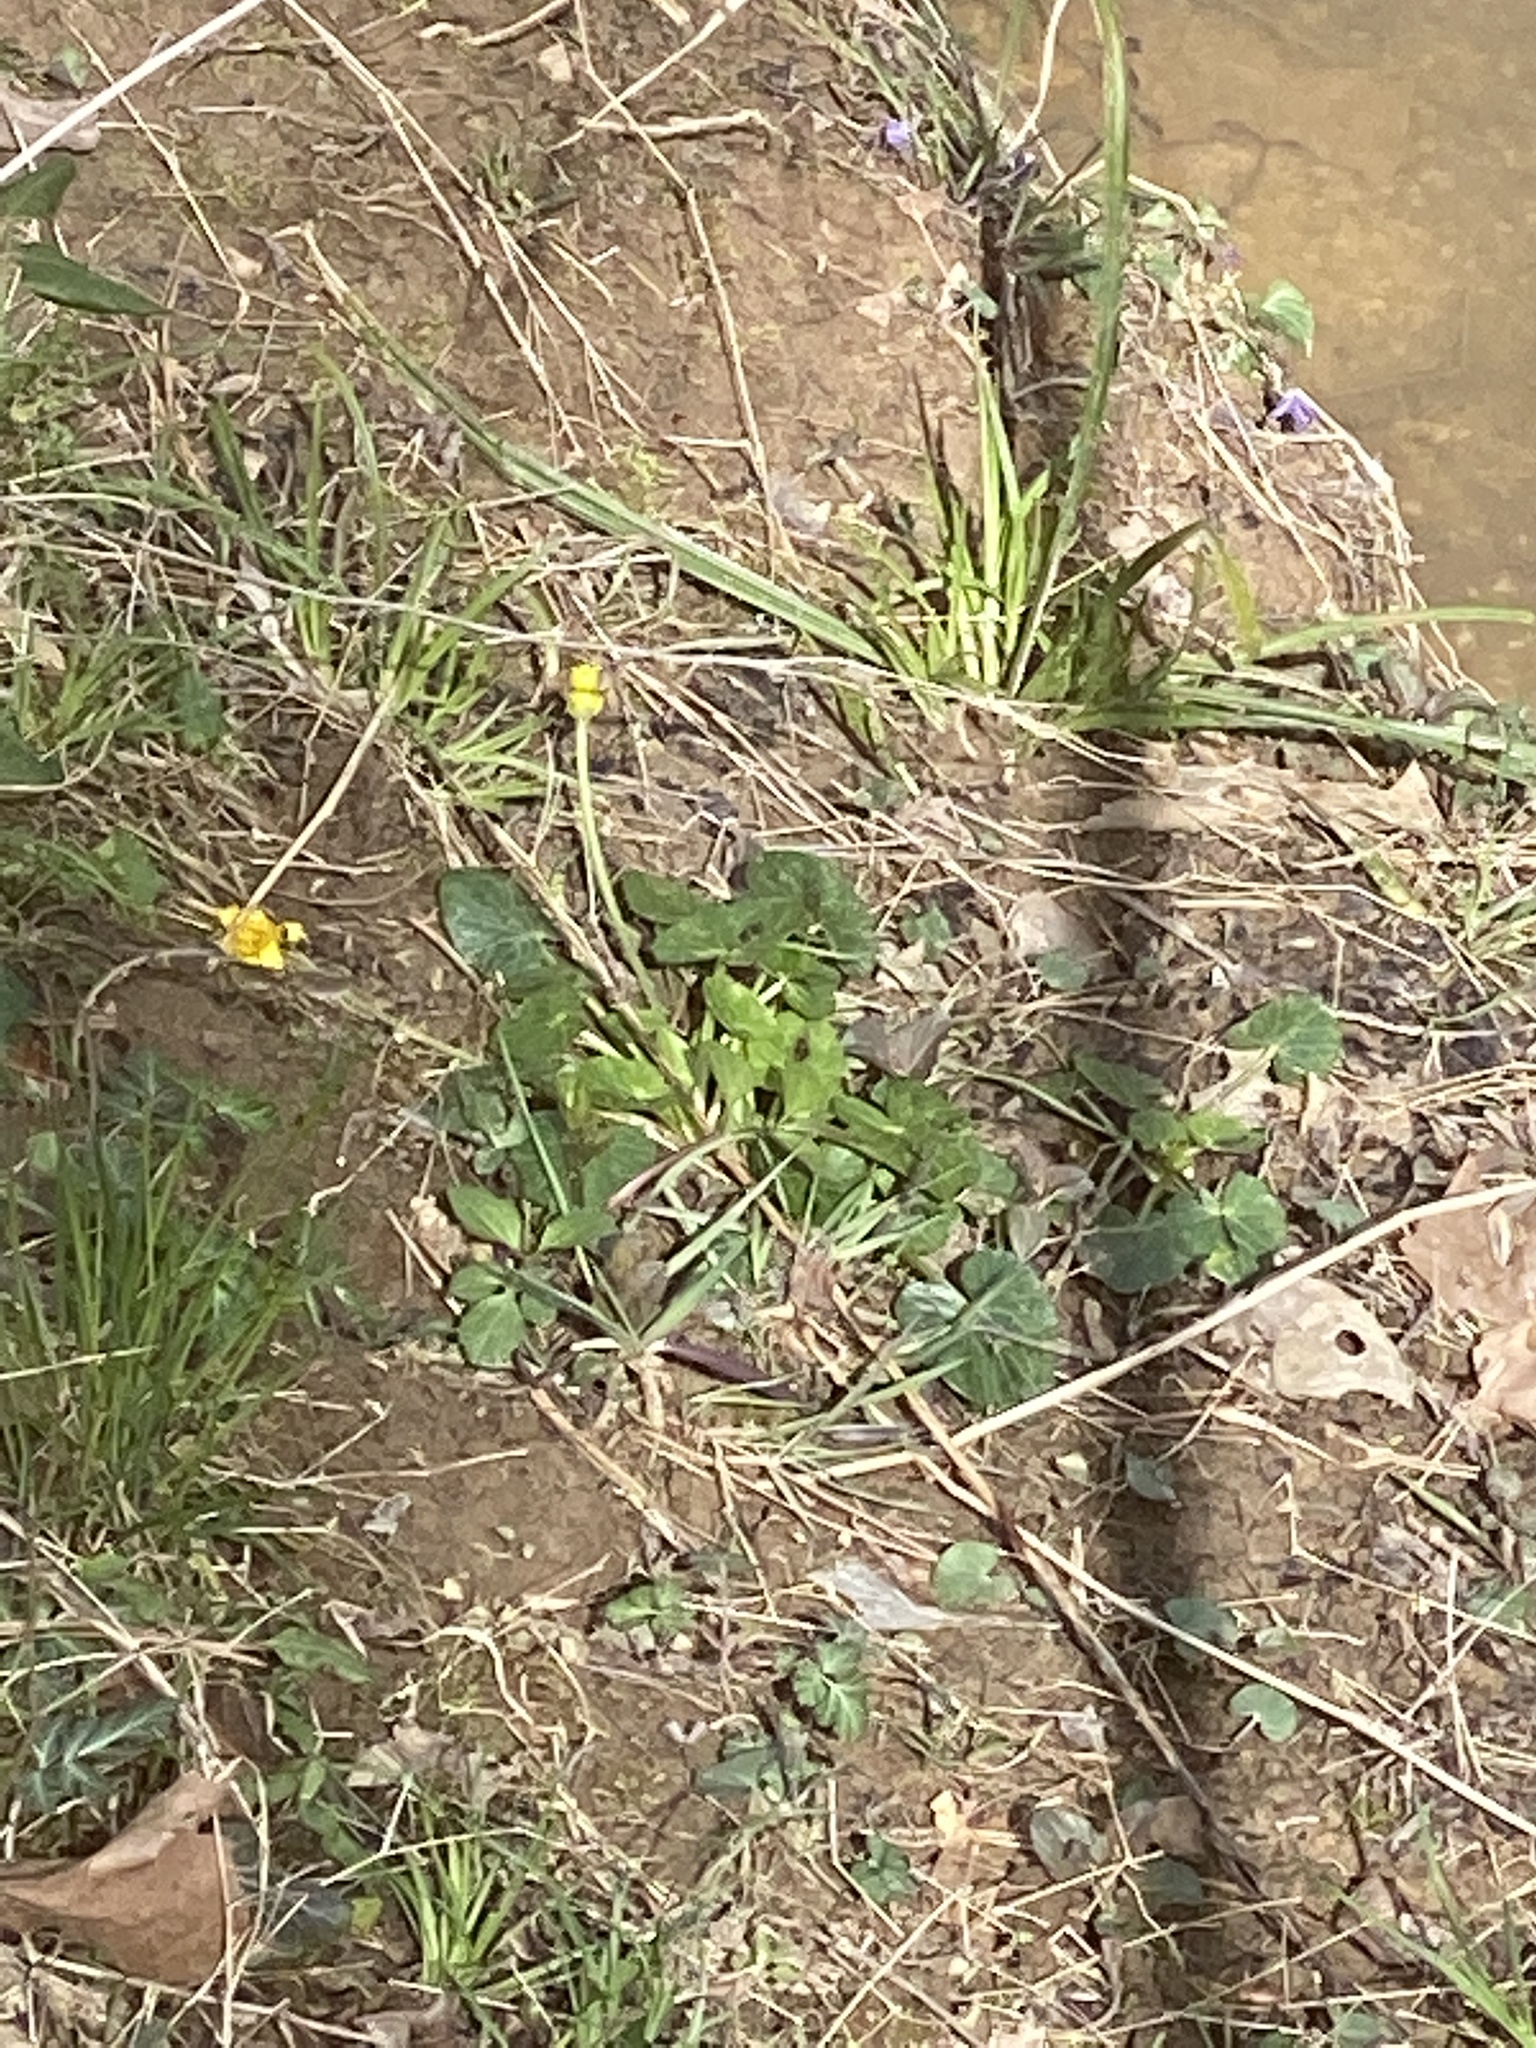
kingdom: Plantae
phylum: Tracheophyta
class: Magnoliopsida
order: Ranunculales
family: Ranunculaceae
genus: Ficaria
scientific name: Ficaria verna
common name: Lesser celandine
